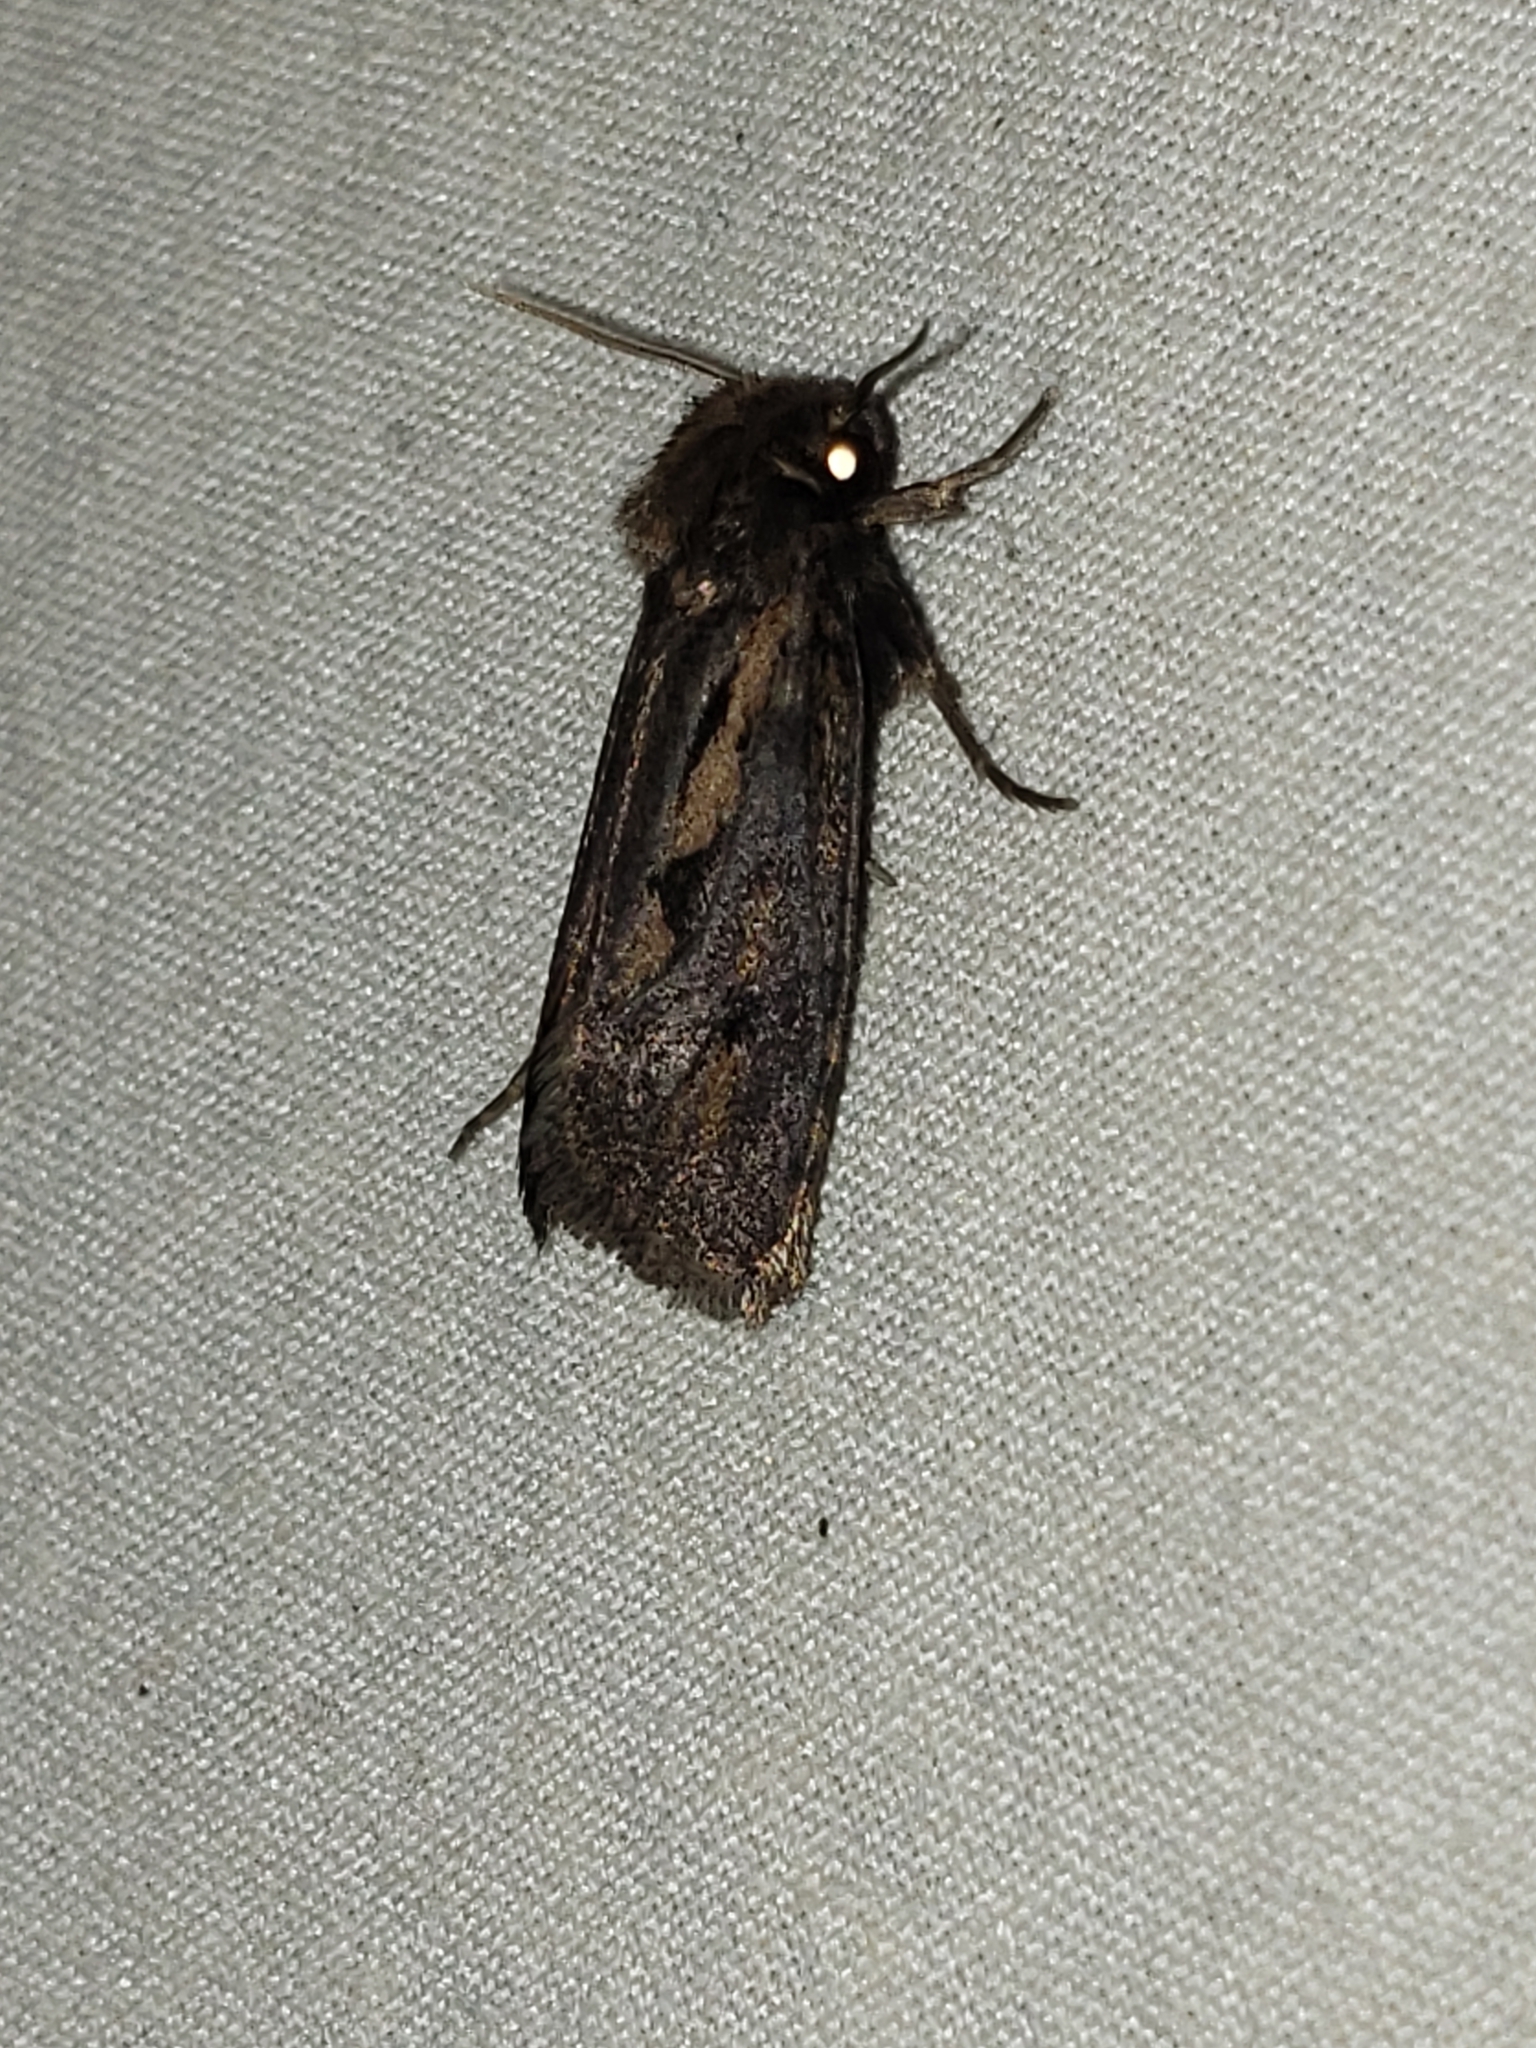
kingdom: Animalia
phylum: Arthropoda
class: Insecta
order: Lepidoptera
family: Tineidae
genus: Acrolophus
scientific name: Acrolophus popeanella
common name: Clemens' grass tubeworm moth
